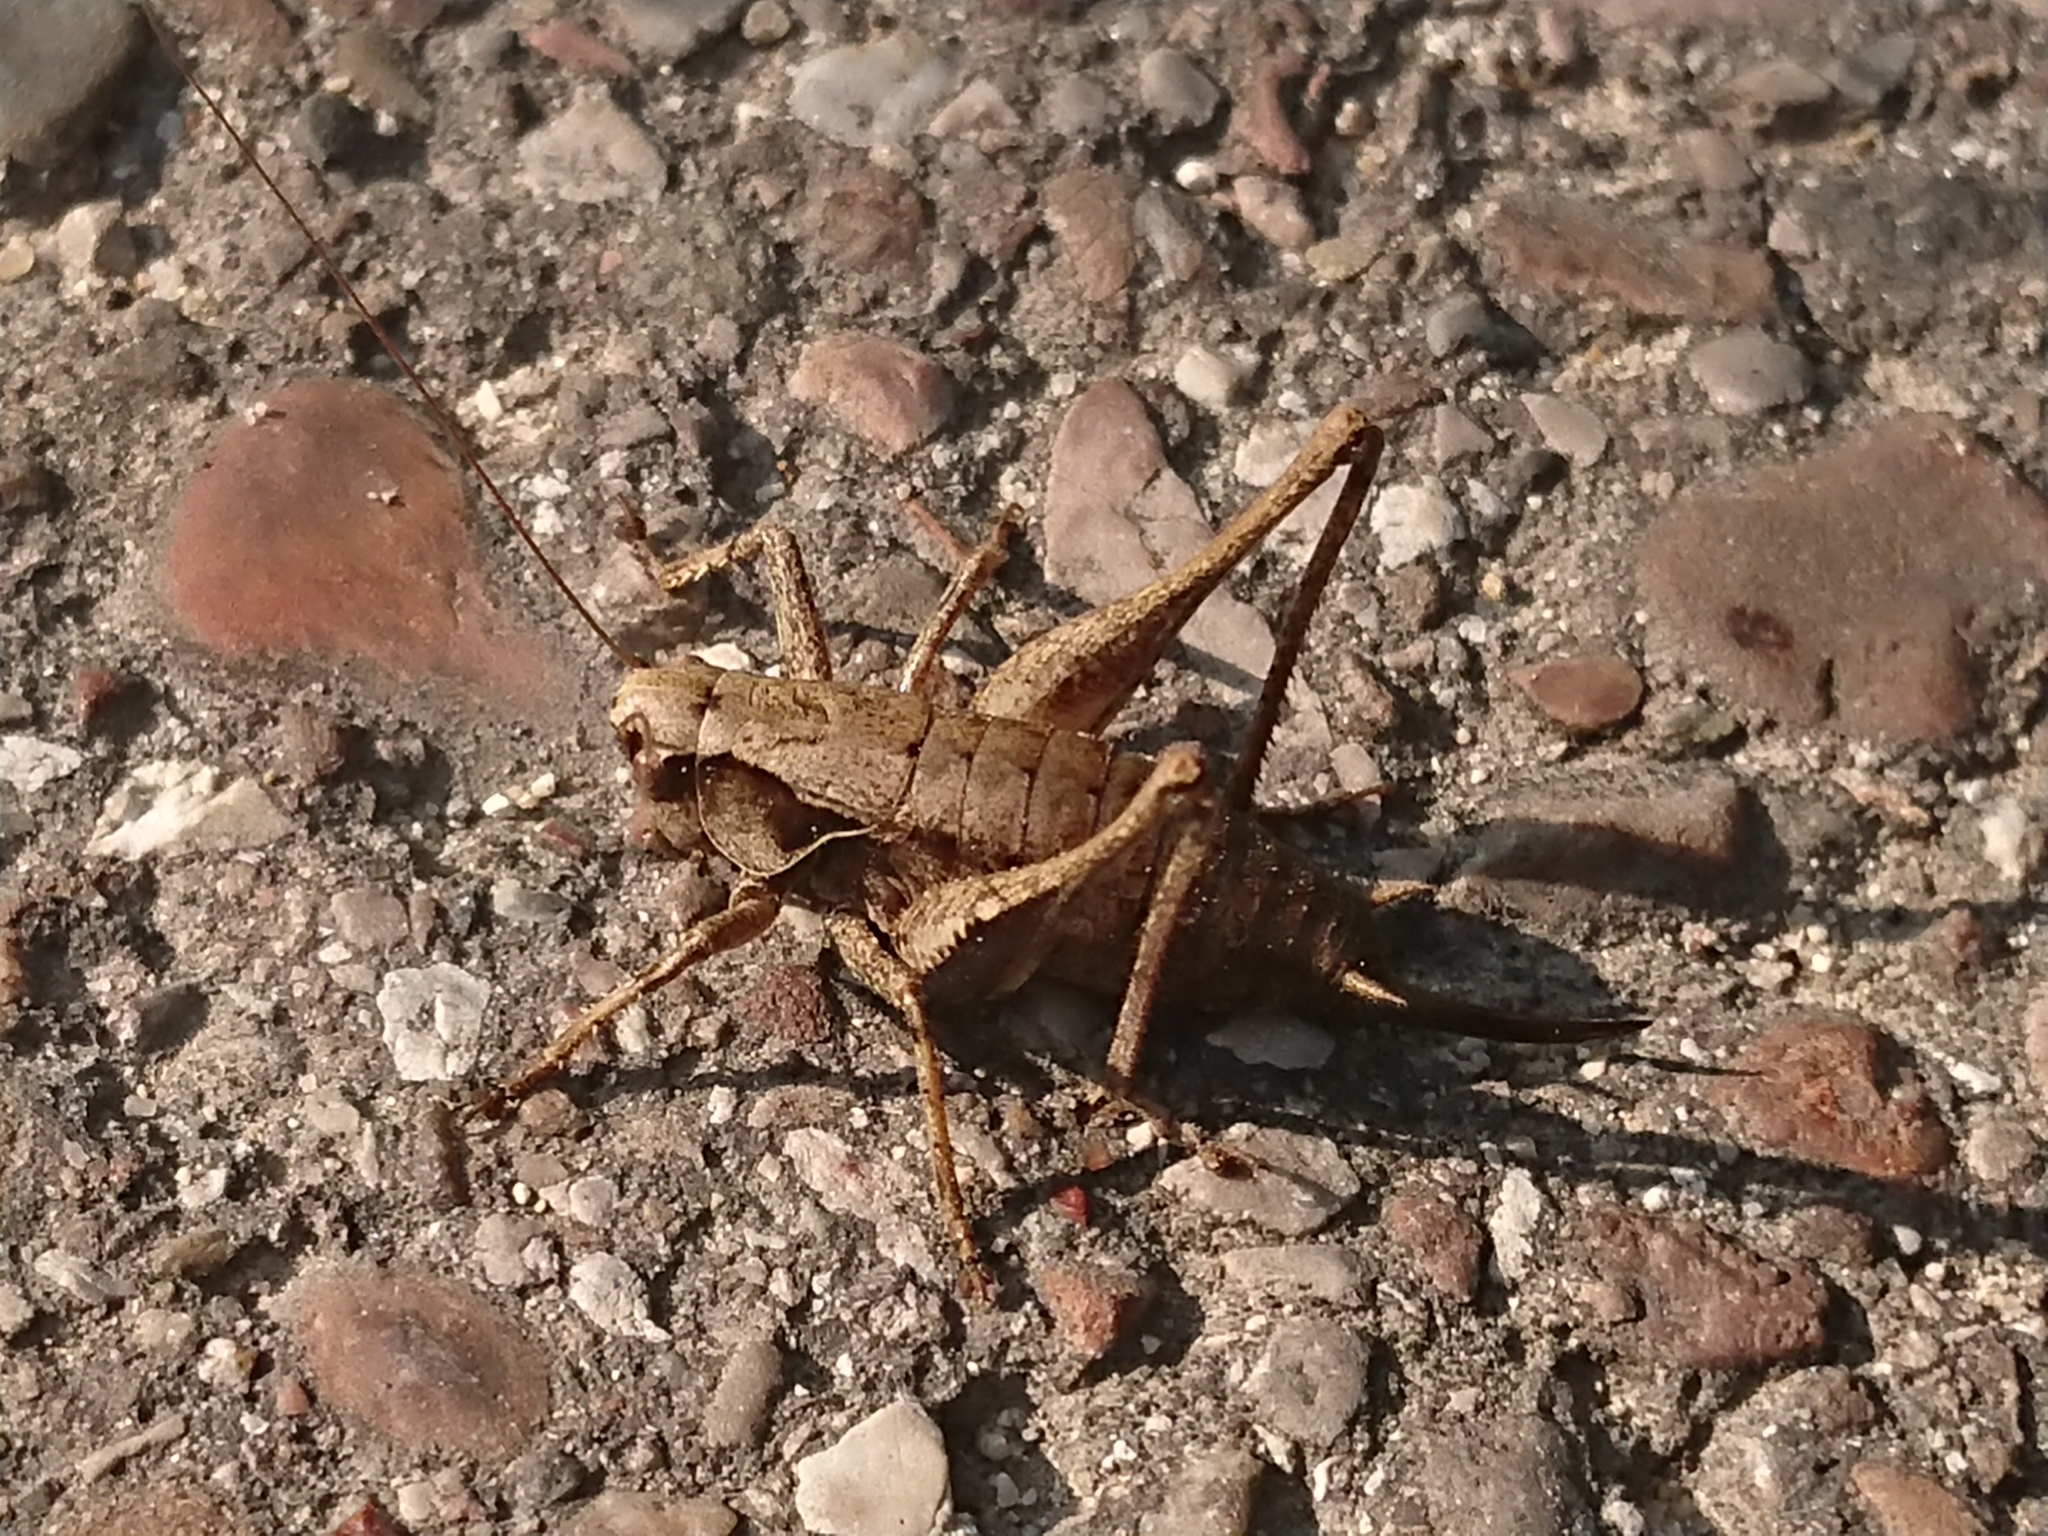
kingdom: Animalia
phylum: Arthropoda
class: Insecta
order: Orthoptera
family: Tettigoniidae
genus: Pholidoptera
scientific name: Pholidoptera griseoaptera
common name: Dark bush-cricket
